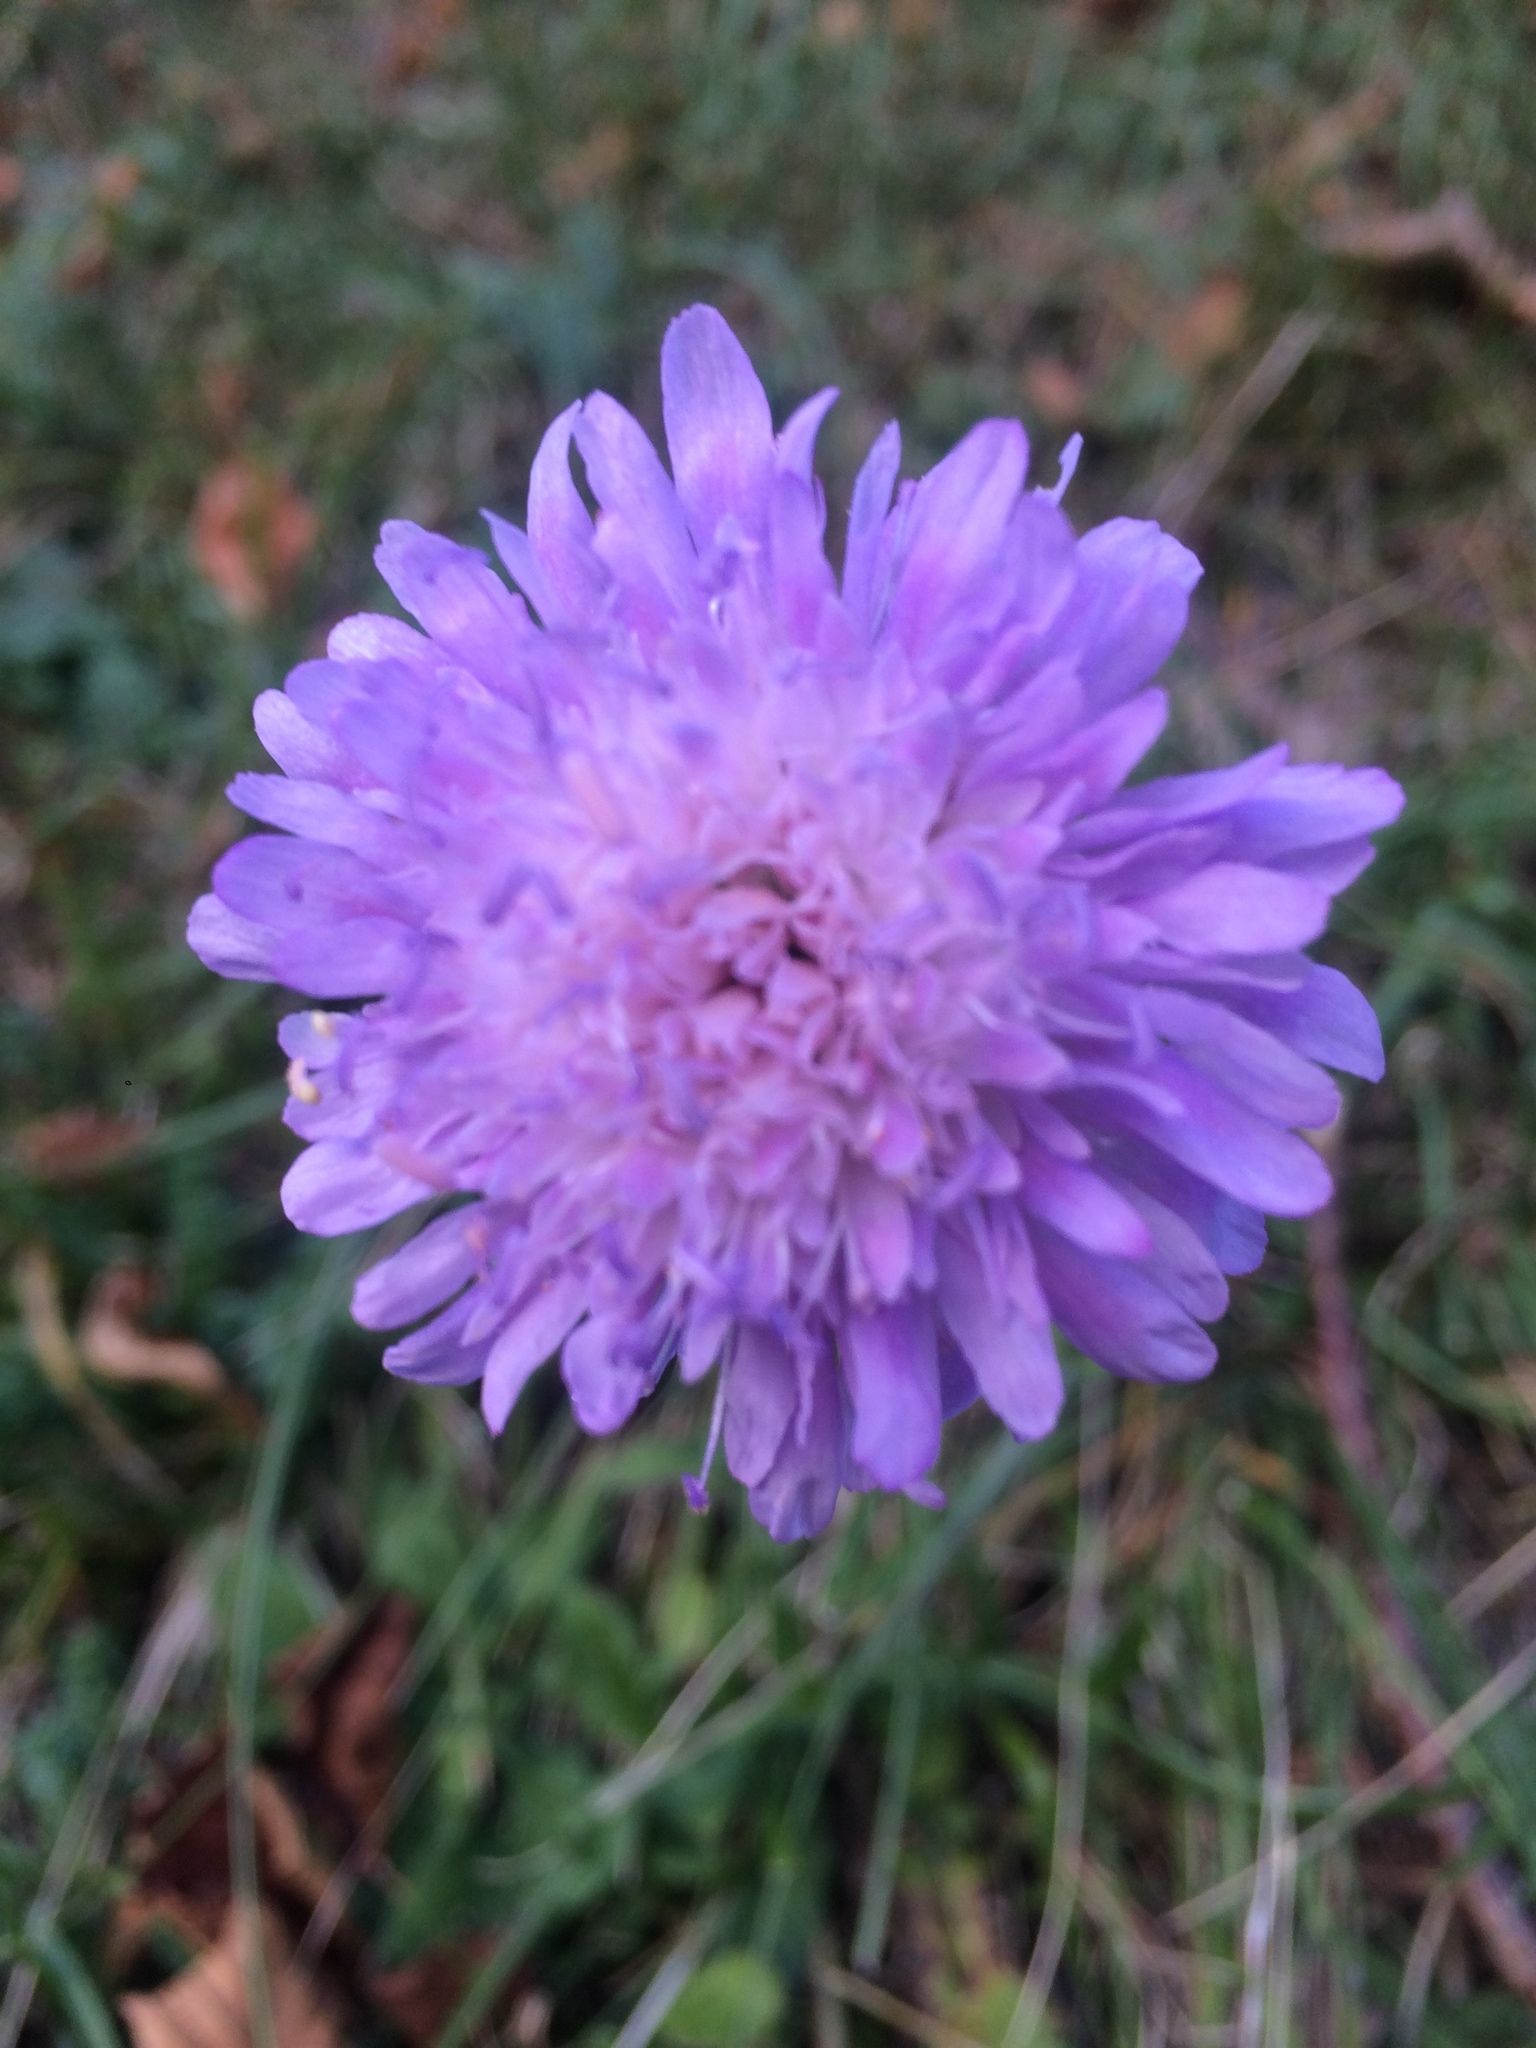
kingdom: Plantae
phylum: Tracheophyta
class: Magnoliopsida
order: Dipsacales
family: Caprifoliaceae
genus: Knautia
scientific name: Knautia arvensis
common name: Field scabiosa
